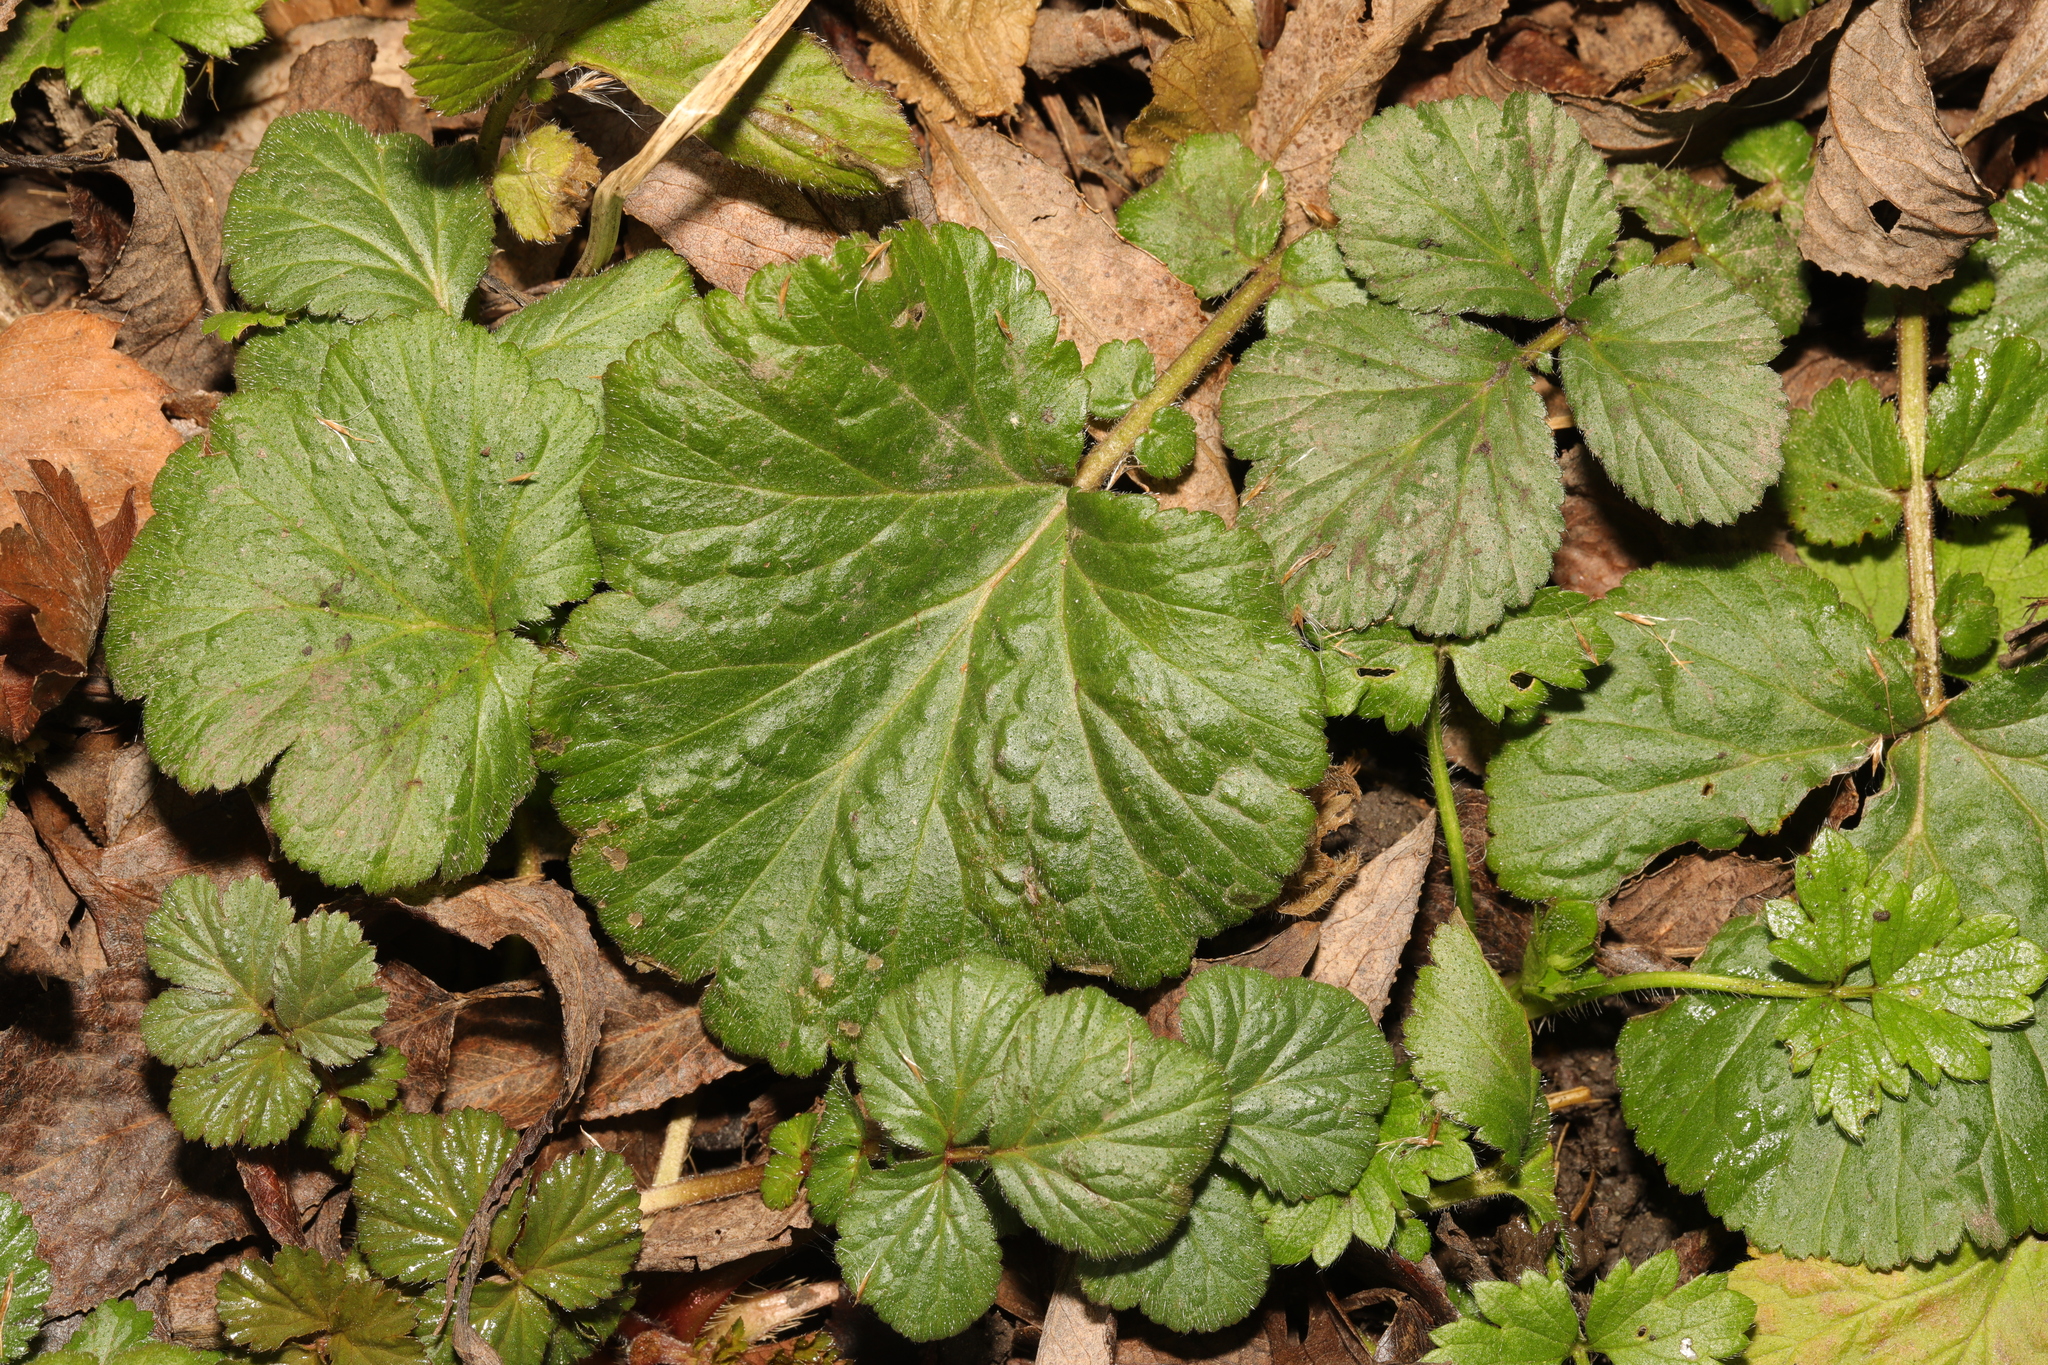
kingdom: Plantae
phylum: Tracheophyta
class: Magnoliopsida
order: Rosales
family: Rosaceae
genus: Geum
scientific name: Geum urbanum
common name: Wood avens
